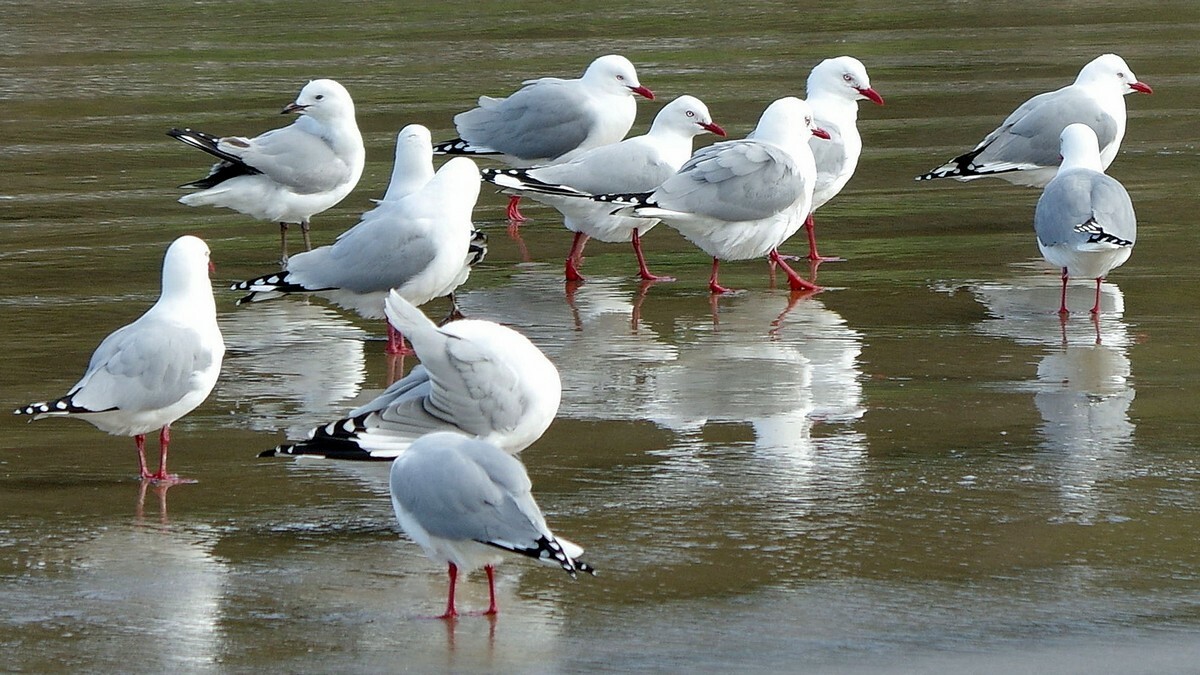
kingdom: Animalia
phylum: Chordata
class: Aves
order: Charadriiformes
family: Laridae
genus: Chroicocephalus
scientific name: Chroicocephalus novaehollandiae
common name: Silver gull
